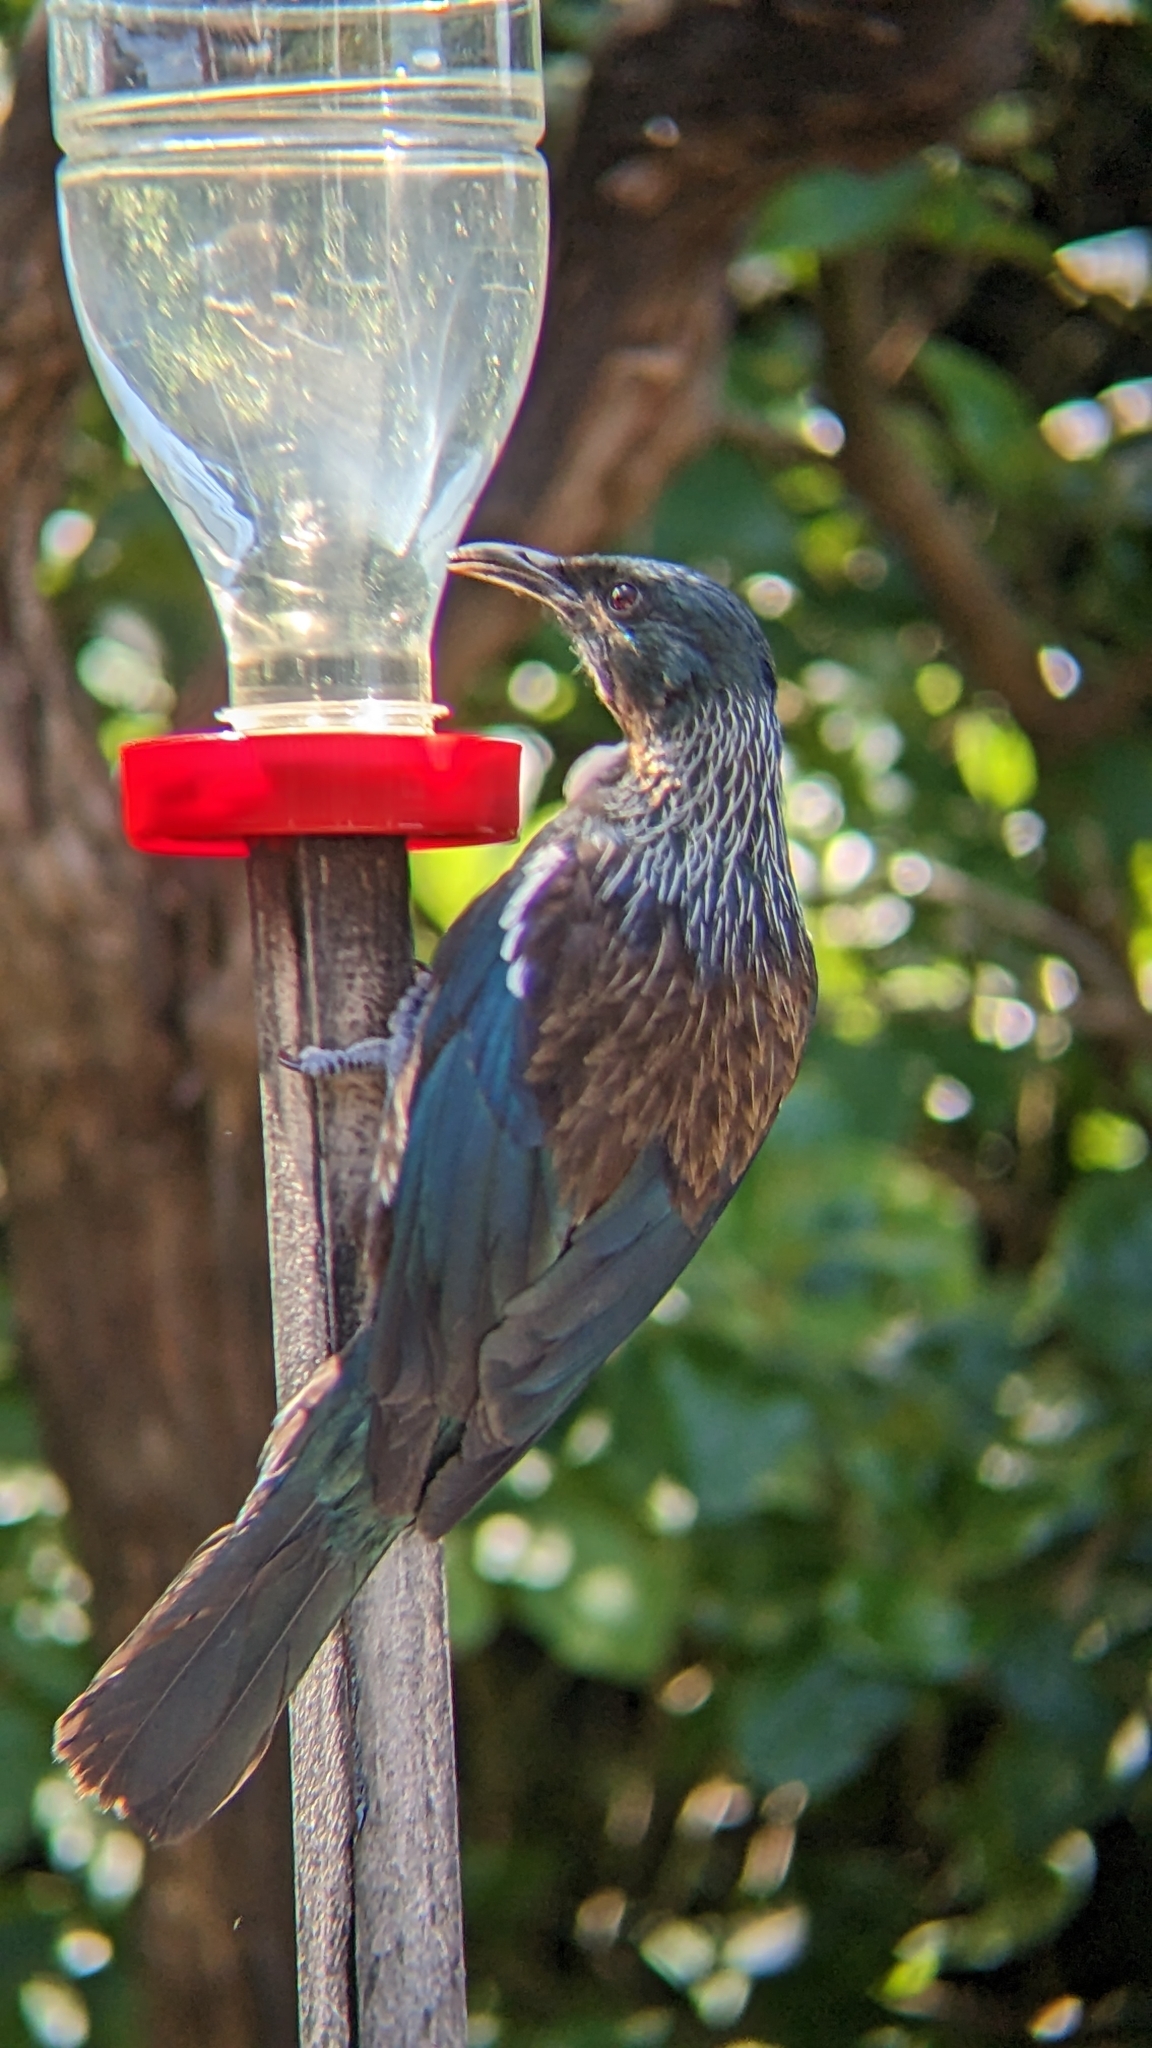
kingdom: Animalia
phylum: Chordata
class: Aves
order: Passeriformes
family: Meliphagidae
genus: Prosthemadera
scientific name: Prosthemadera novaeseelandiae
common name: Tui
